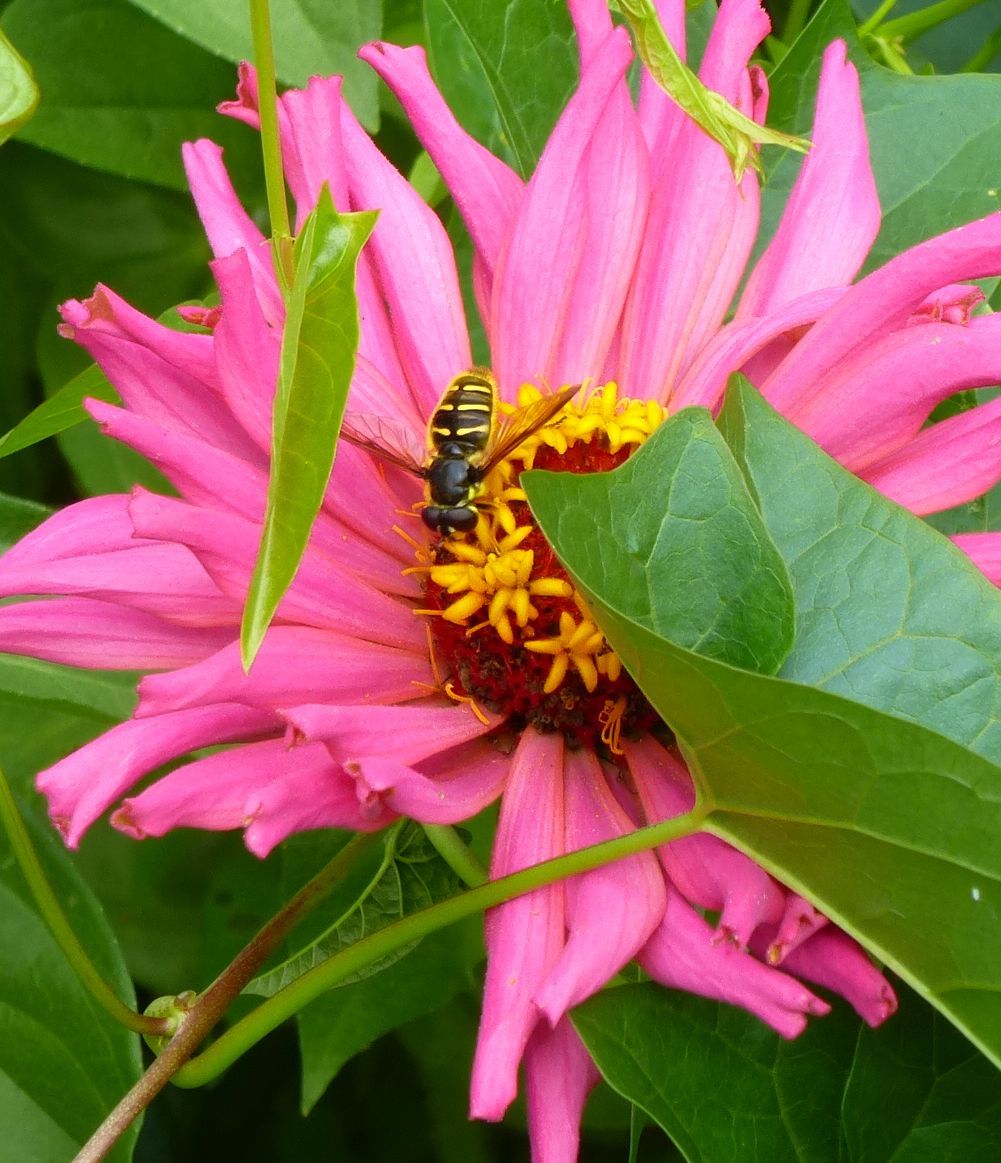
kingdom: Animalia
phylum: Arthropoda
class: Insecta
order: Diptera
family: Syrphidae
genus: Sericomyia
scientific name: Sericomyia chrysotoxoides
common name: Oblique-banded pond fly
